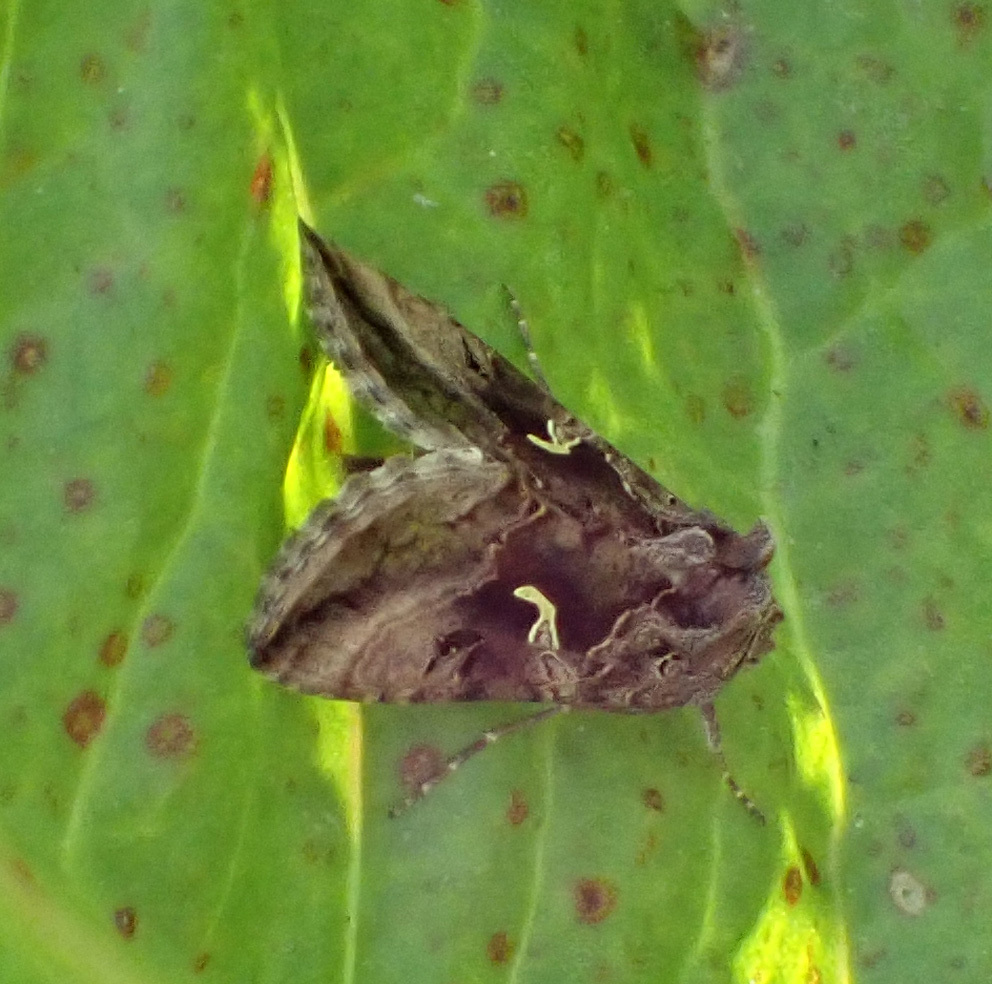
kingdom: Animalia
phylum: Arthropoda
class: Insecta
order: Lepidoptera
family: Noctuidae
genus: Autographa
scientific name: Autographa gamma
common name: Silver y
